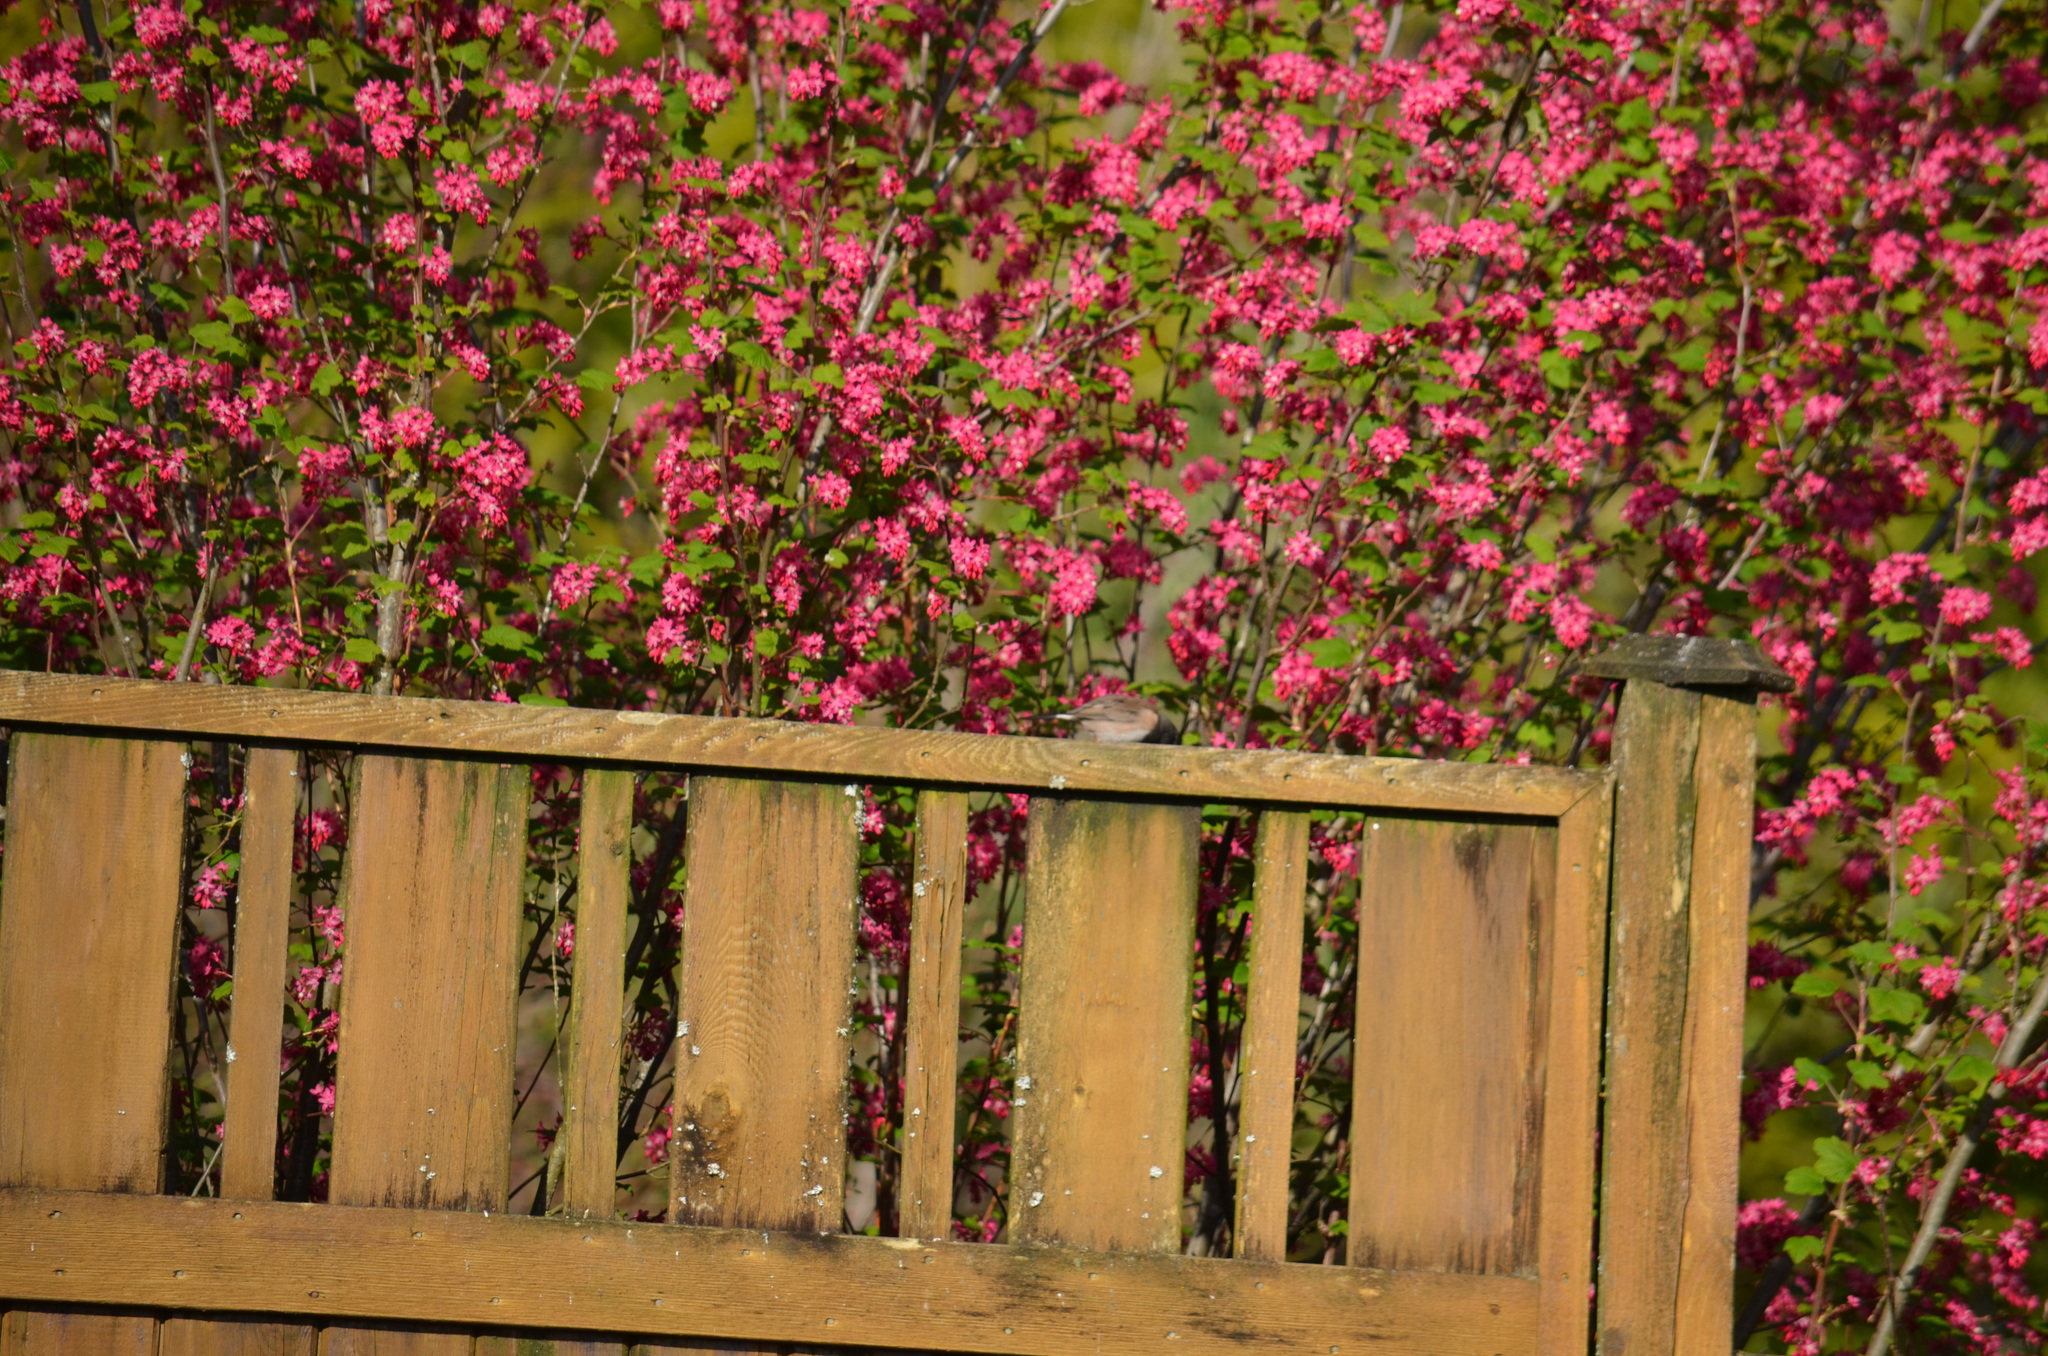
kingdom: Animalia
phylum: Chordata
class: Aves
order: Passeriformes
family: Passerellidae
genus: Junco
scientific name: Junco hyemalis
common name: Dark-eyed junco
